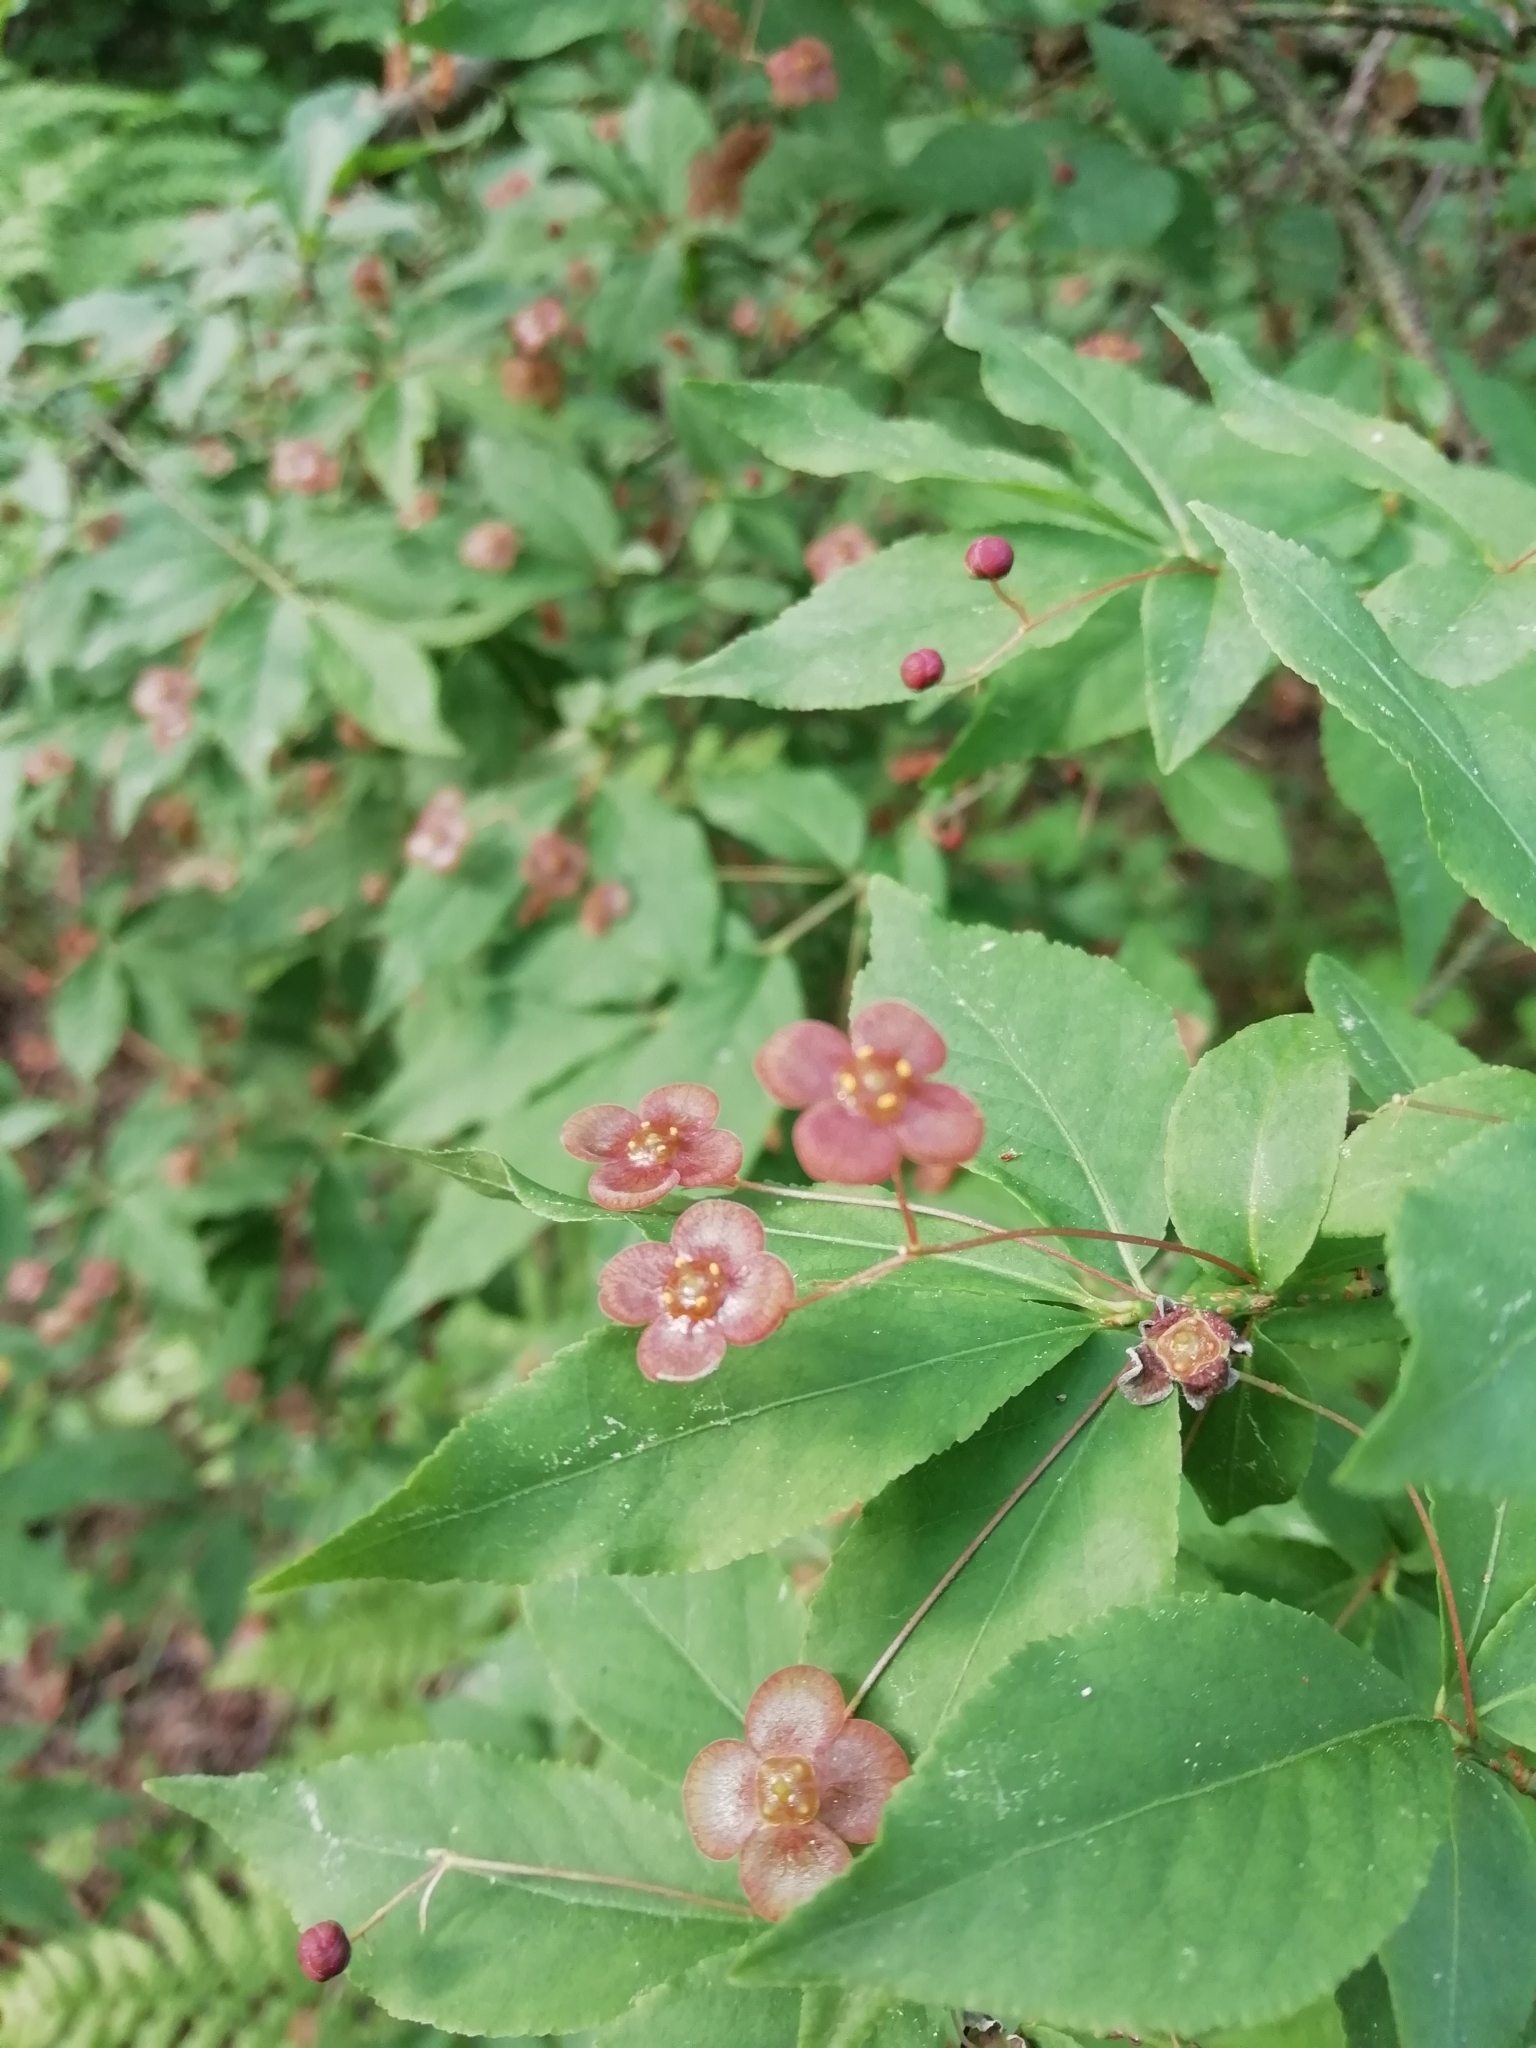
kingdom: Plantae
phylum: Tracheophyta
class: Magnoliopsida
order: Celastrales
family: Celastraceae
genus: Euonymus
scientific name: Euonymus verrucosus
